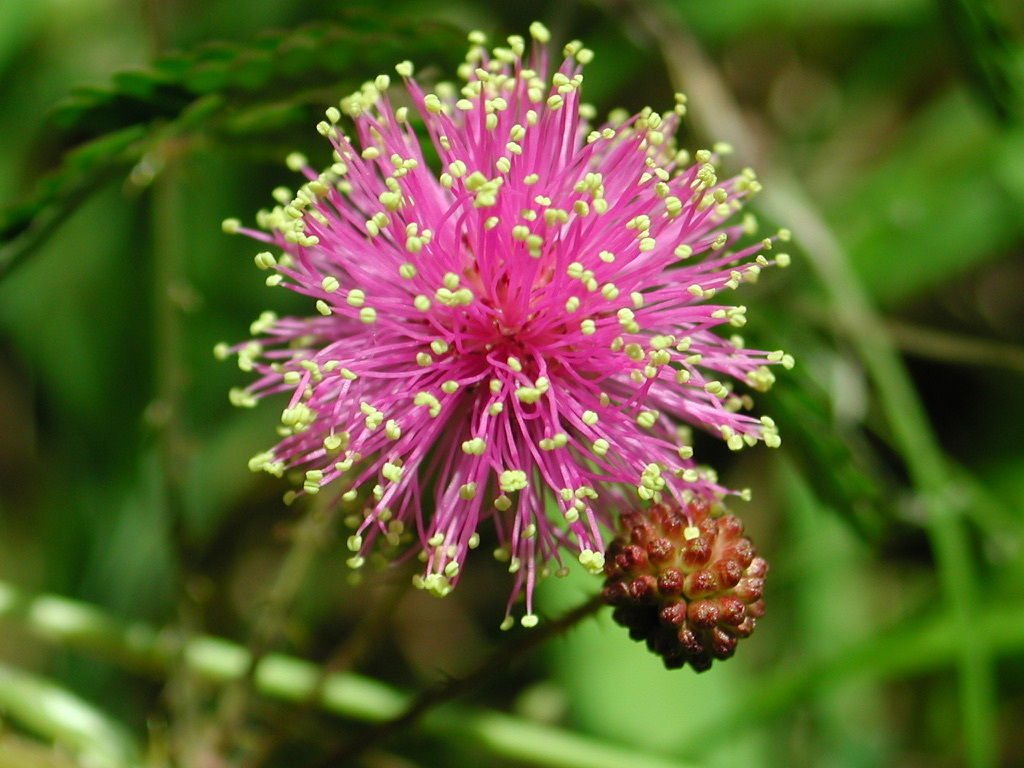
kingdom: Plantae
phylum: Tracheophyta
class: Magnoliopsida
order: Fabales
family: Fabaceae
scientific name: Fabaceae
